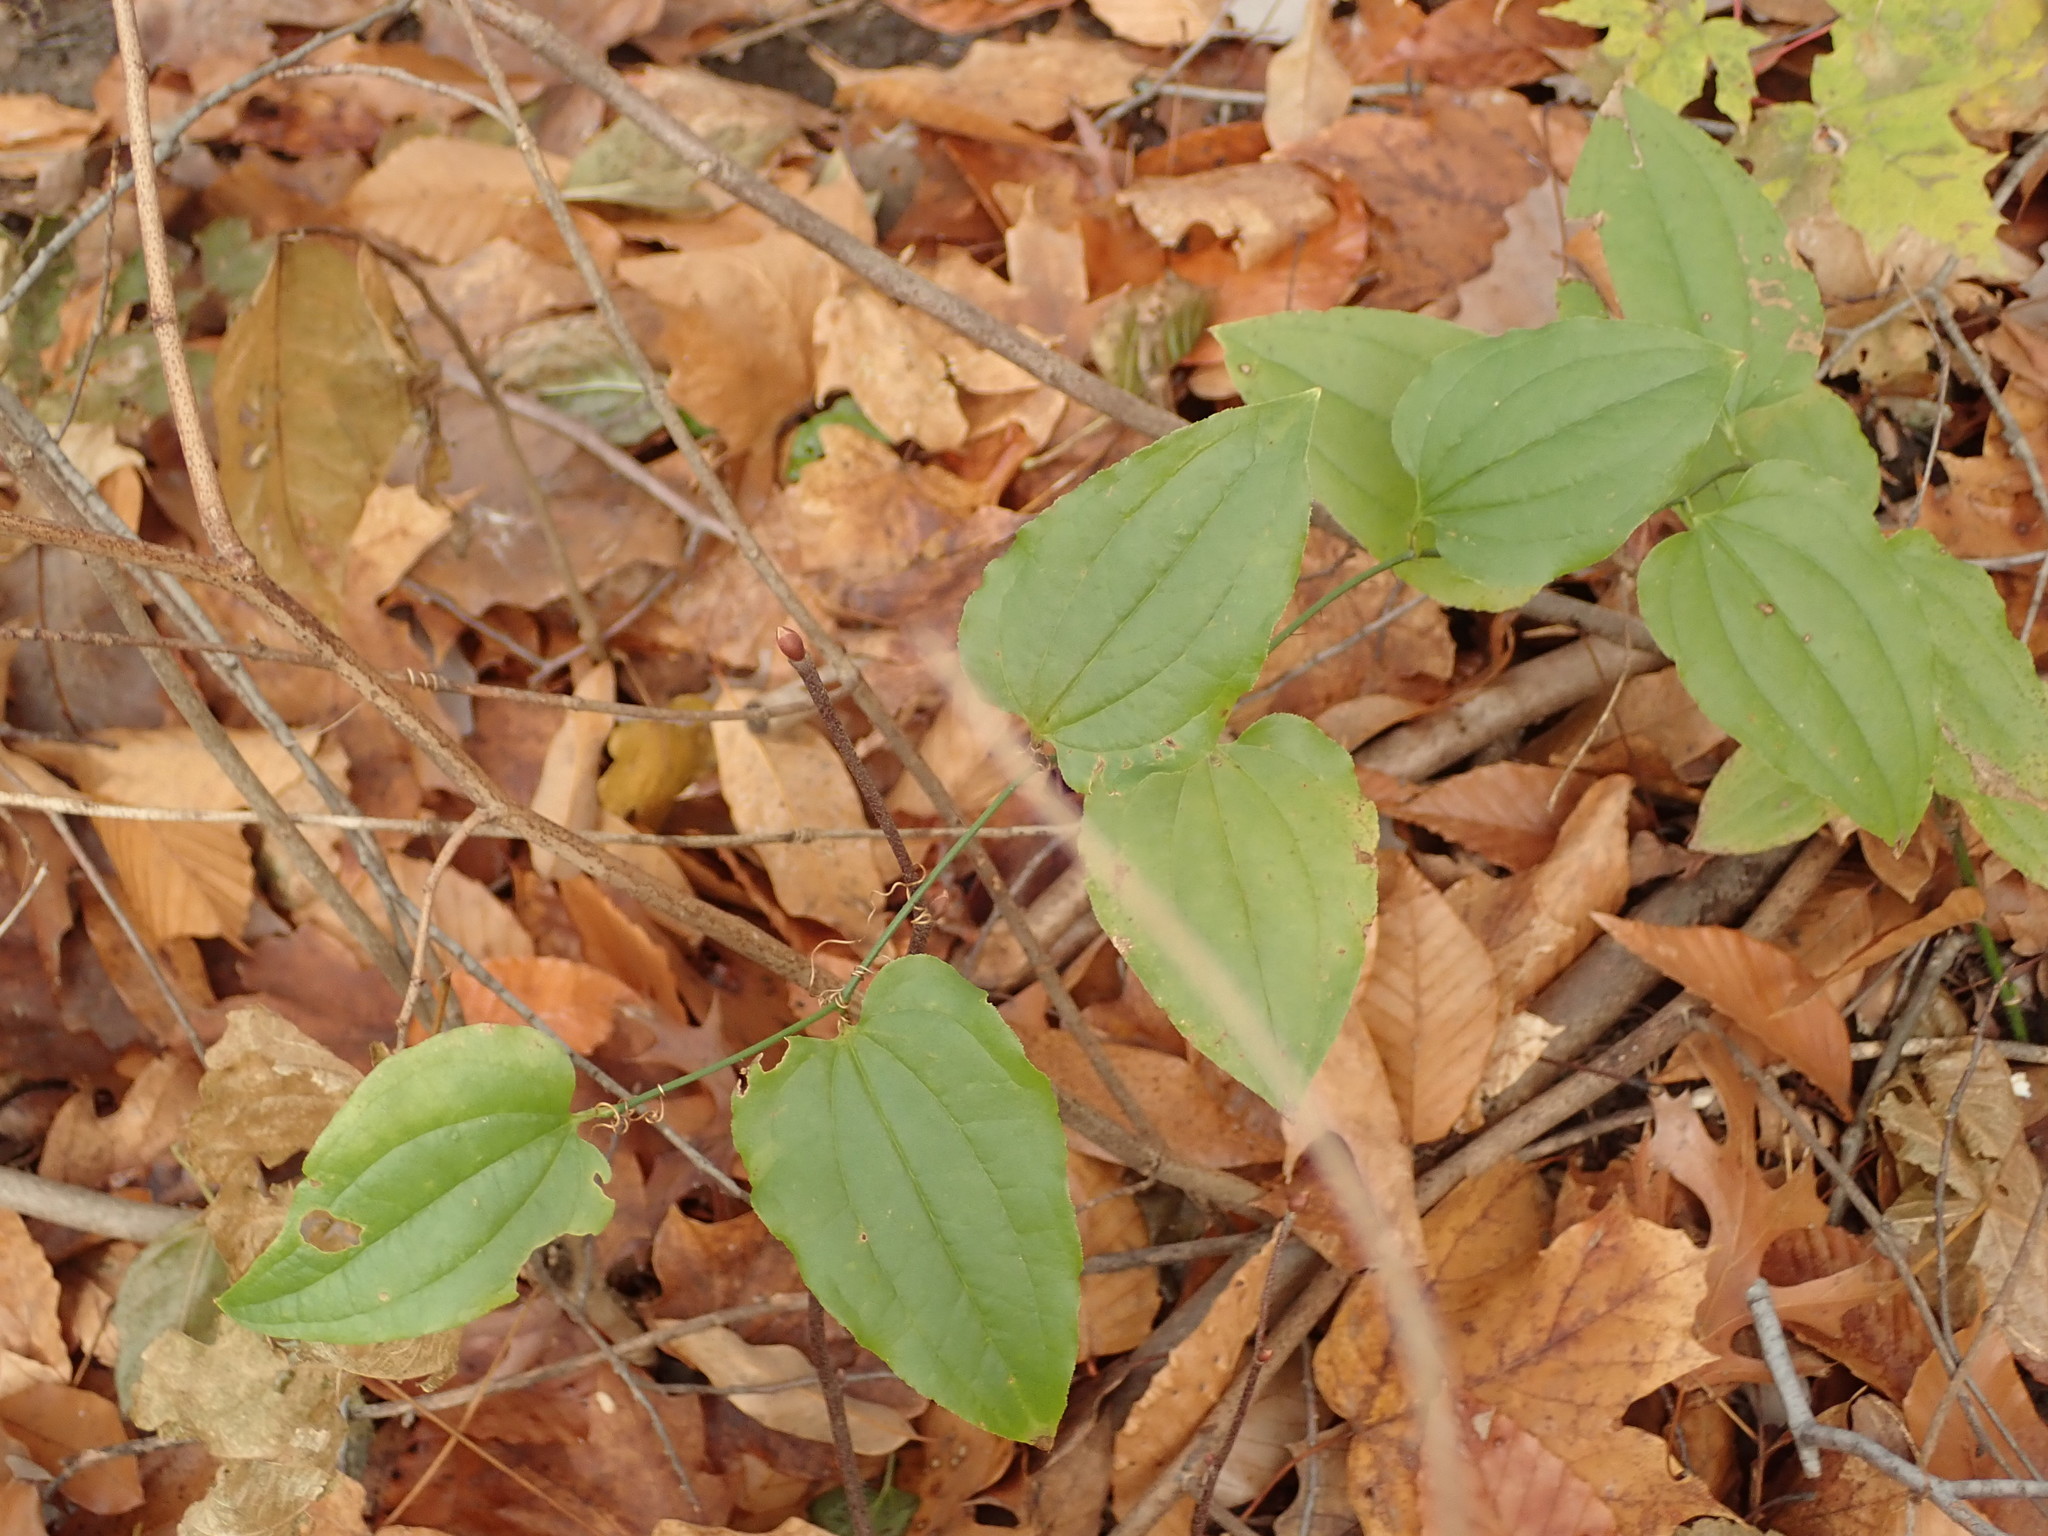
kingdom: Plantae
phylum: Tracheophyta
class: Liliopsida
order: Liliales
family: Smilacaceae
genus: Smilax
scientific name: Smilax tamnoides
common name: Hellfetter
